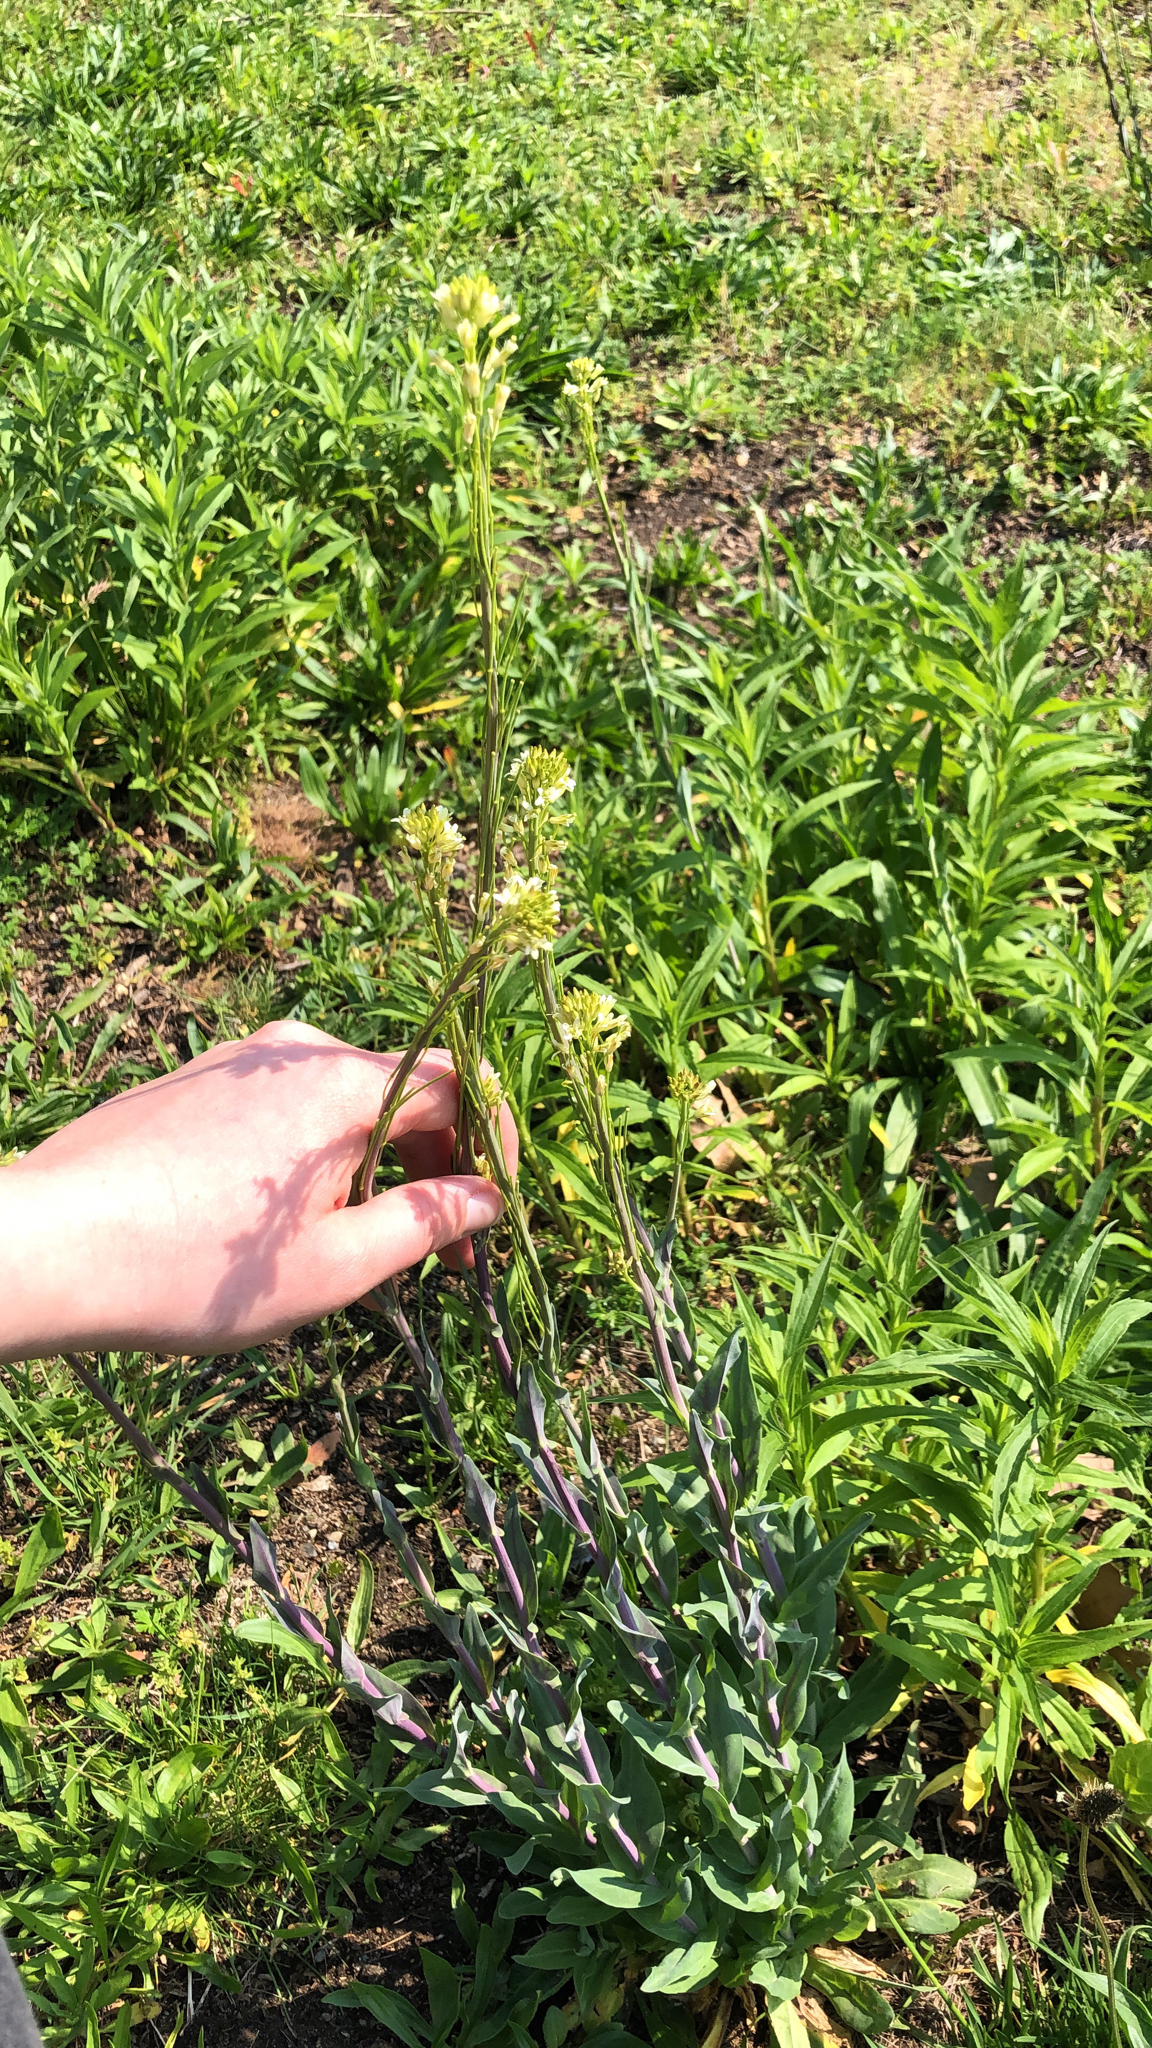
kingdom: Plantae
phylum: Tracheophyta
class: Magnoliopsida
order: Brassicales
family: Brassicaceae
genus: Turritis
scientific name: Turritis glabra
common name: Tower rockcress
